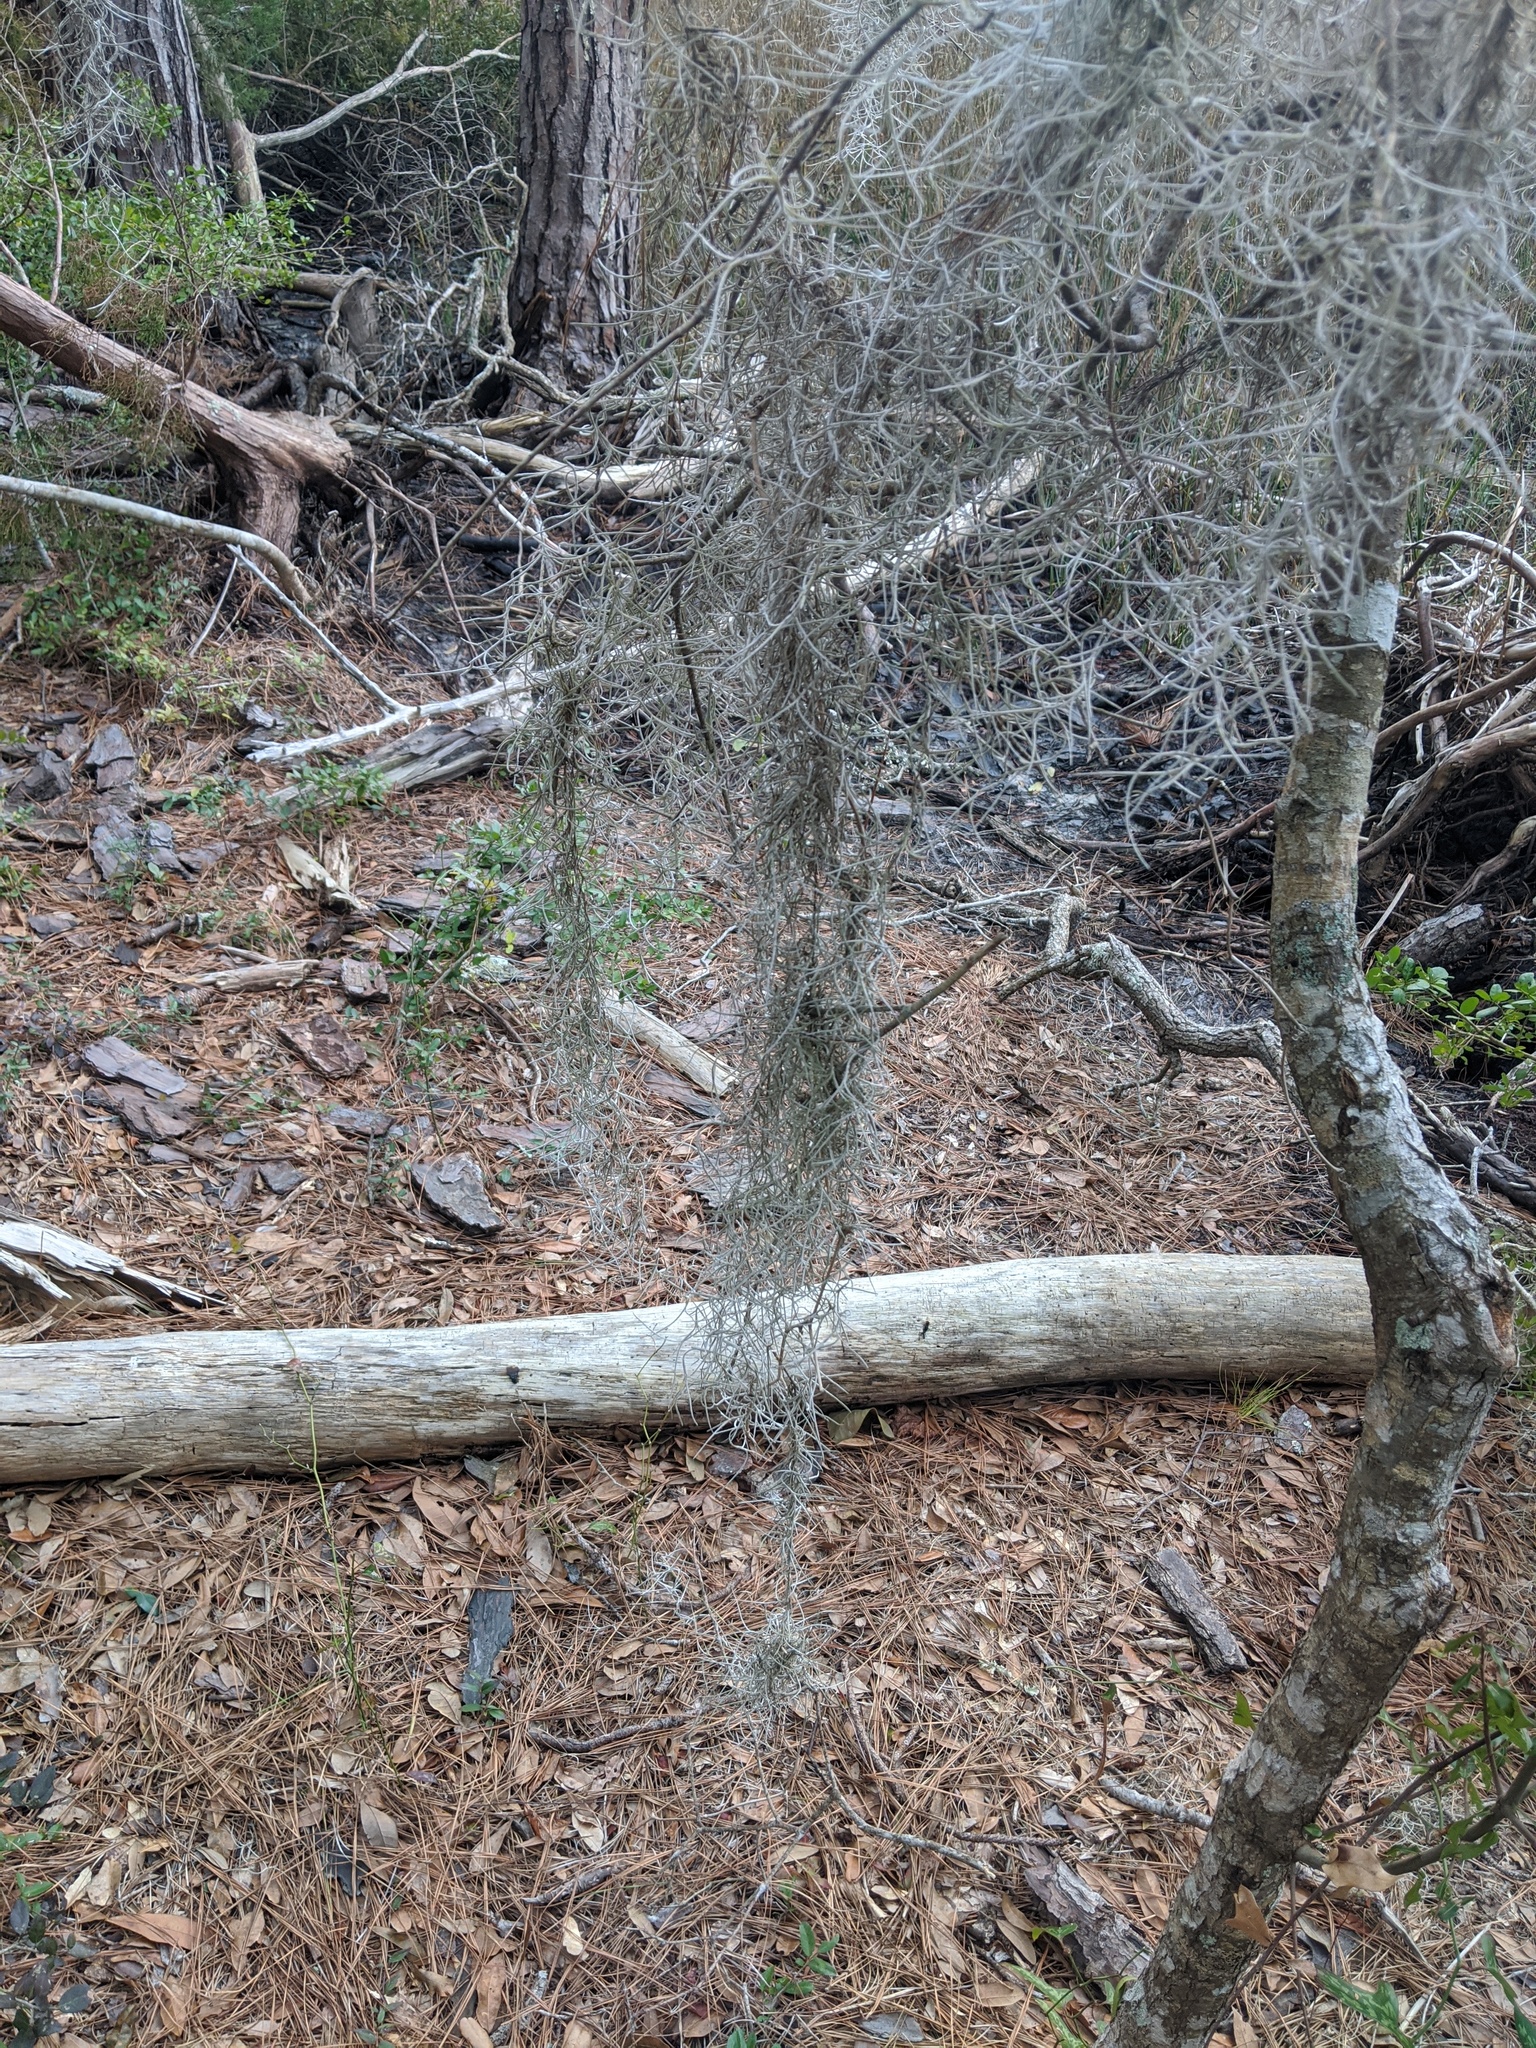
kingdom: Plantae
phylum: Tracheophyta
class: Liliopsida
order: Poales
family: Bromeliaceae
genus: Tillandsia
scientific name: Tillandsia usneoides
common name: Spanish moss
